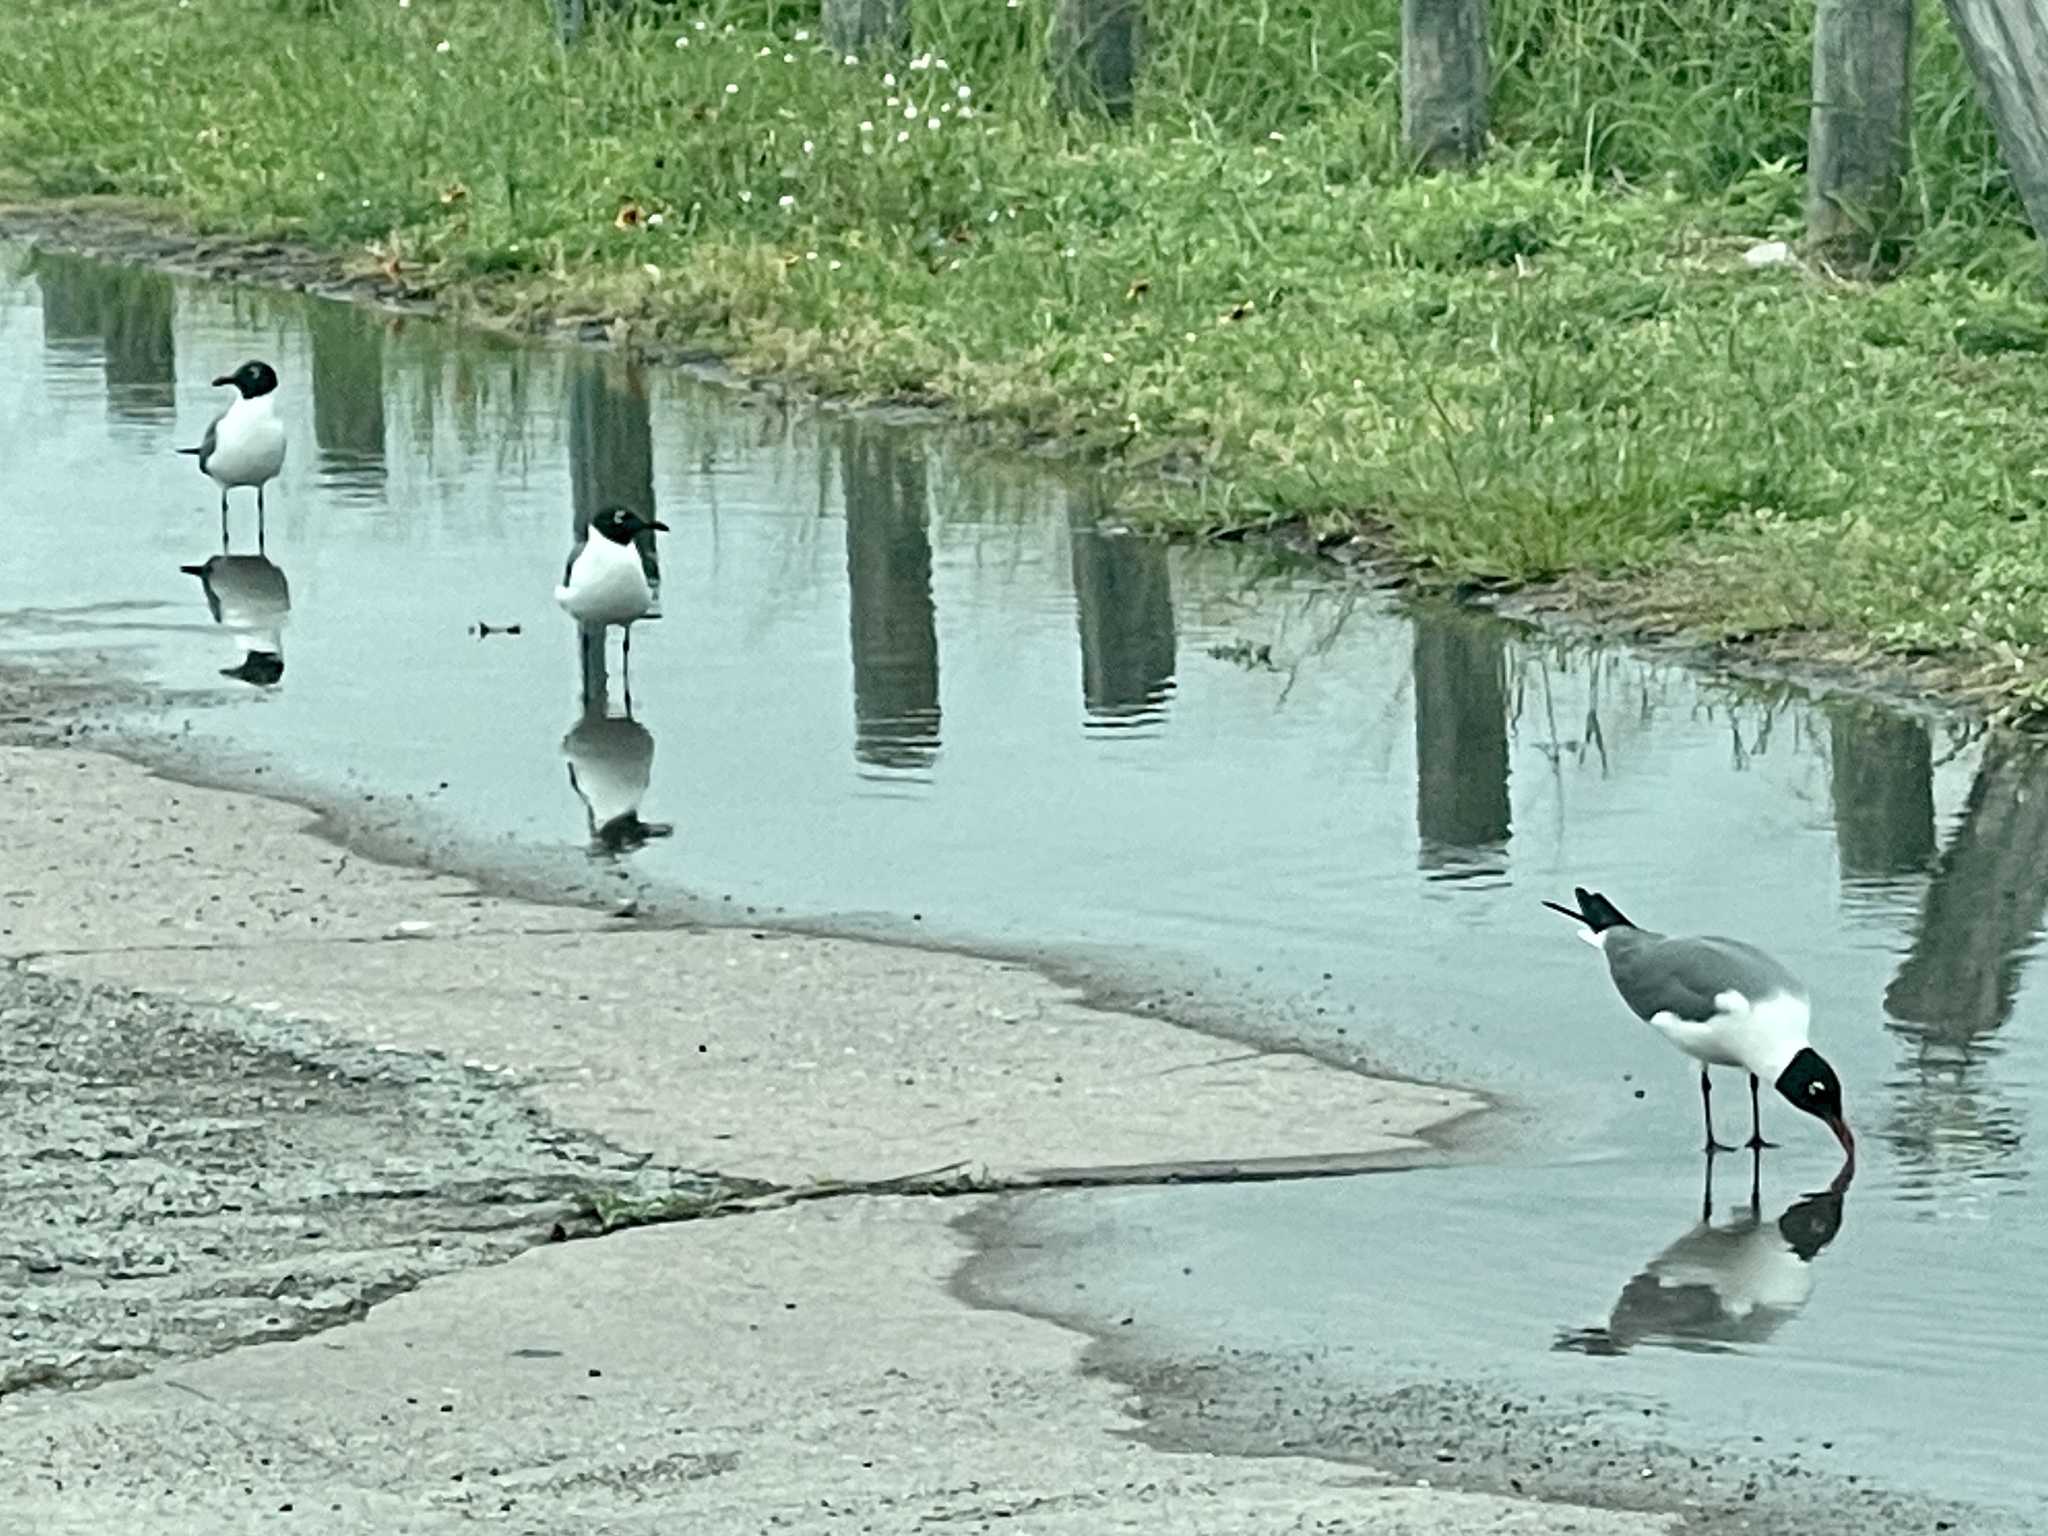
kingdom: Animalia
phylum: Chordata
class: Aves
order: Charadriiformes
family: Laridae
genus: Leucophaeus
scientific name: Leucophaeus atricilla
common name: Laughing gull
